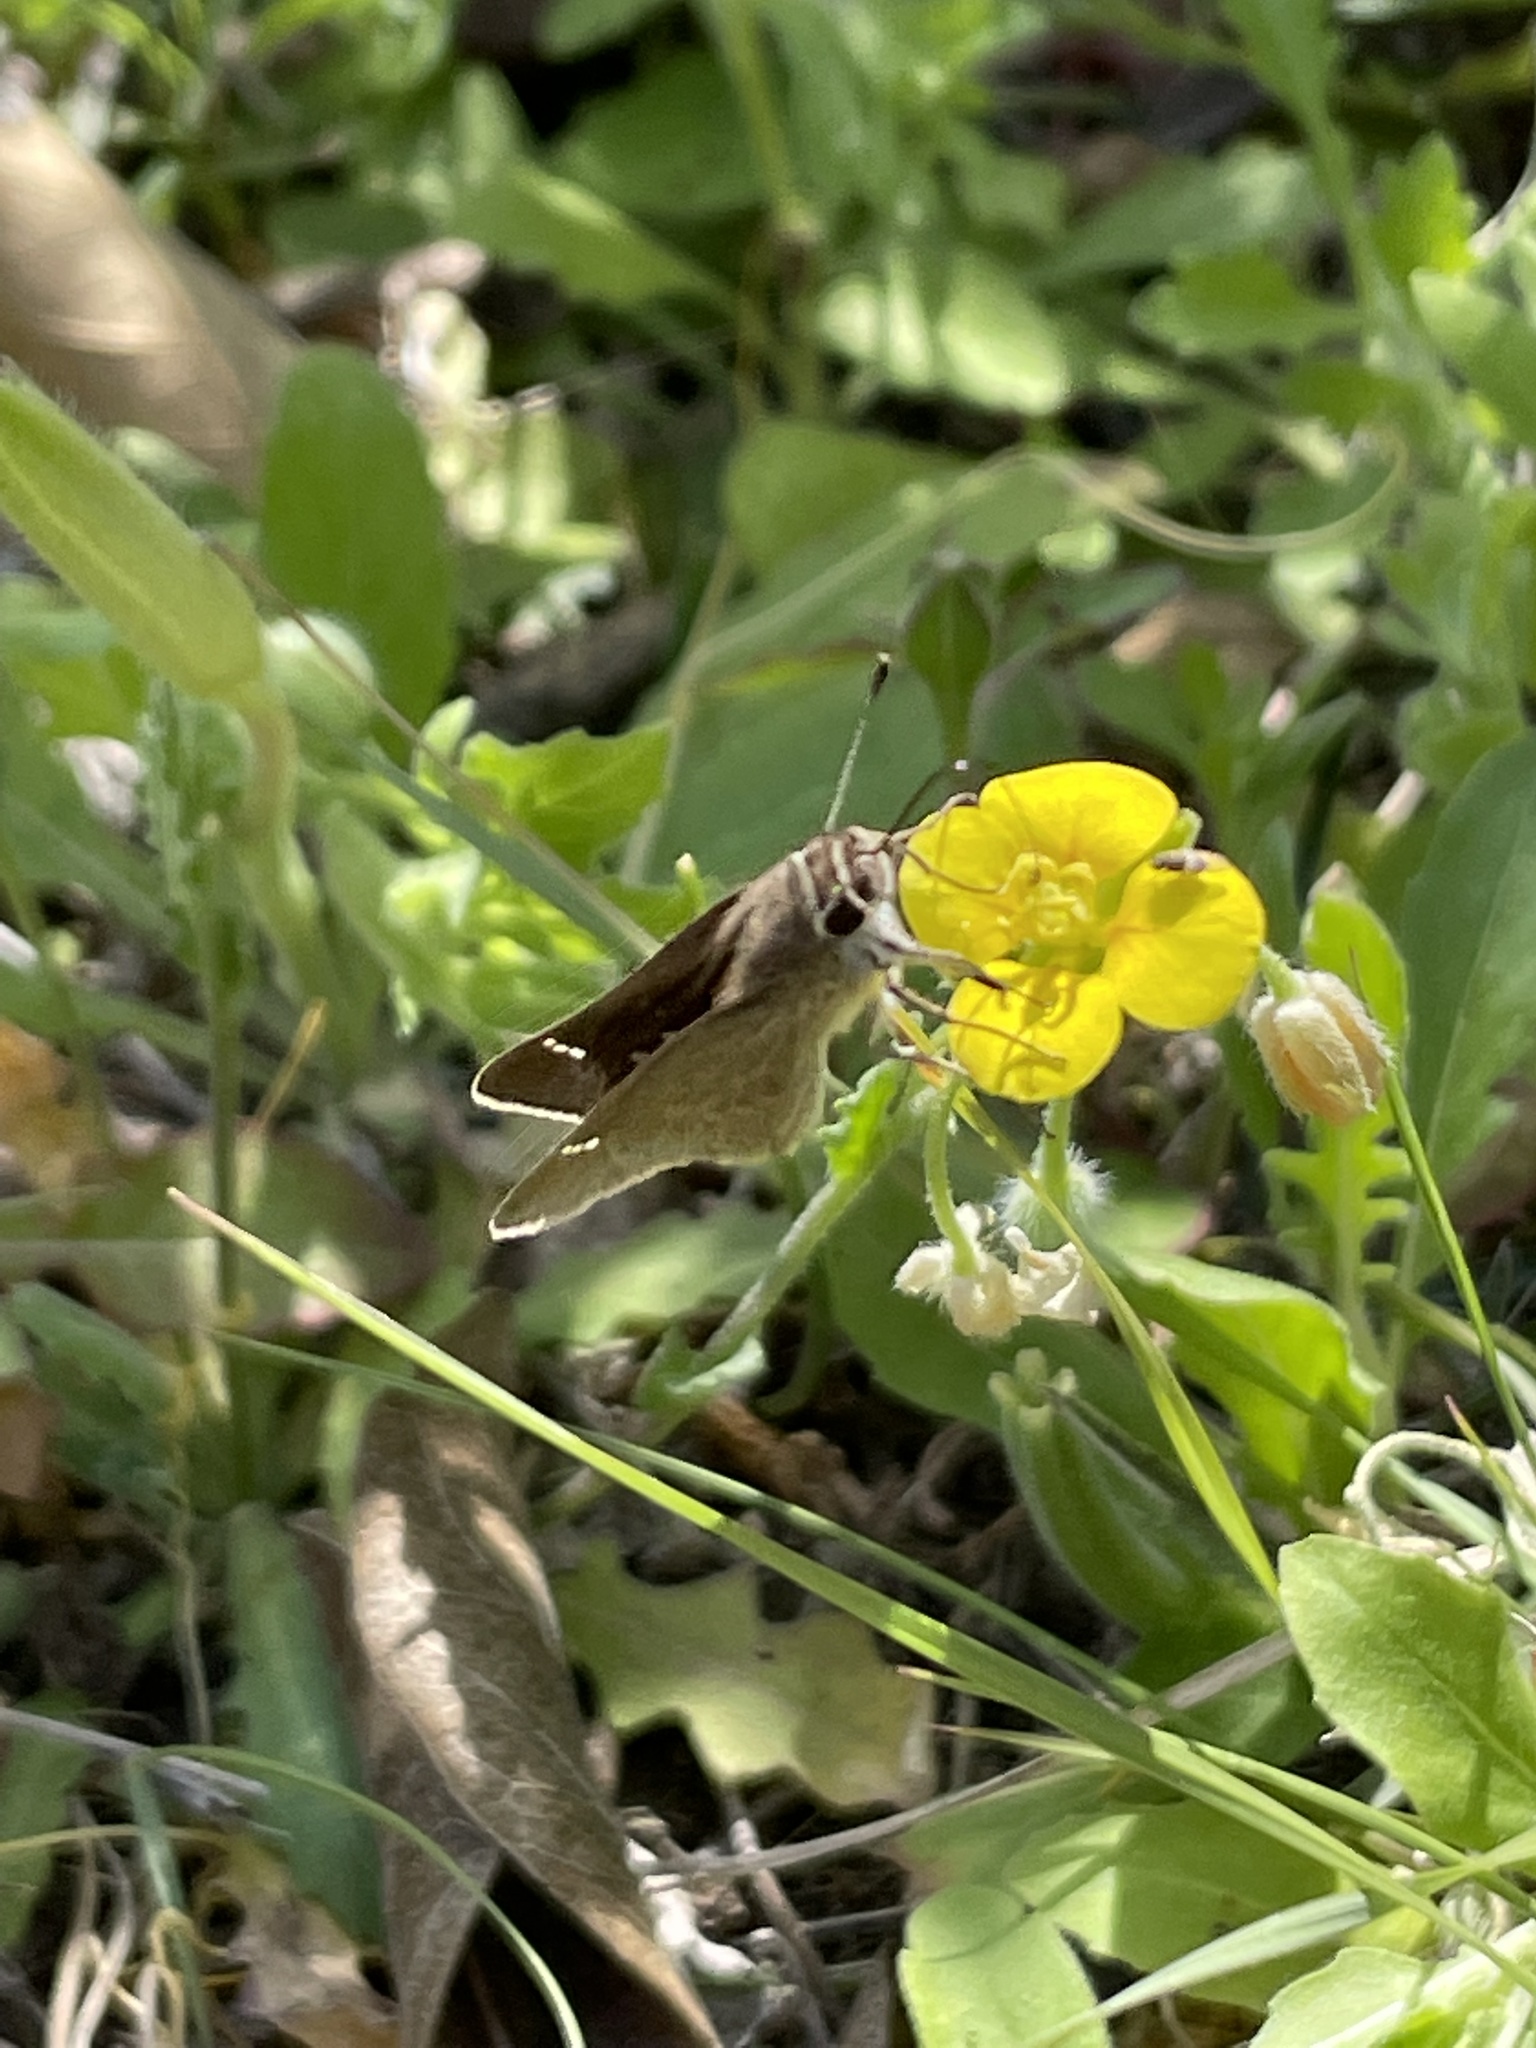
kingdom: Animalia
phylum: Arthropoda
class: Insecta
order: Lepidoptera
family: Hesperiidae
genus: Lerodea
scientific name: Lerodea eufala
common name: Eufala skipper
